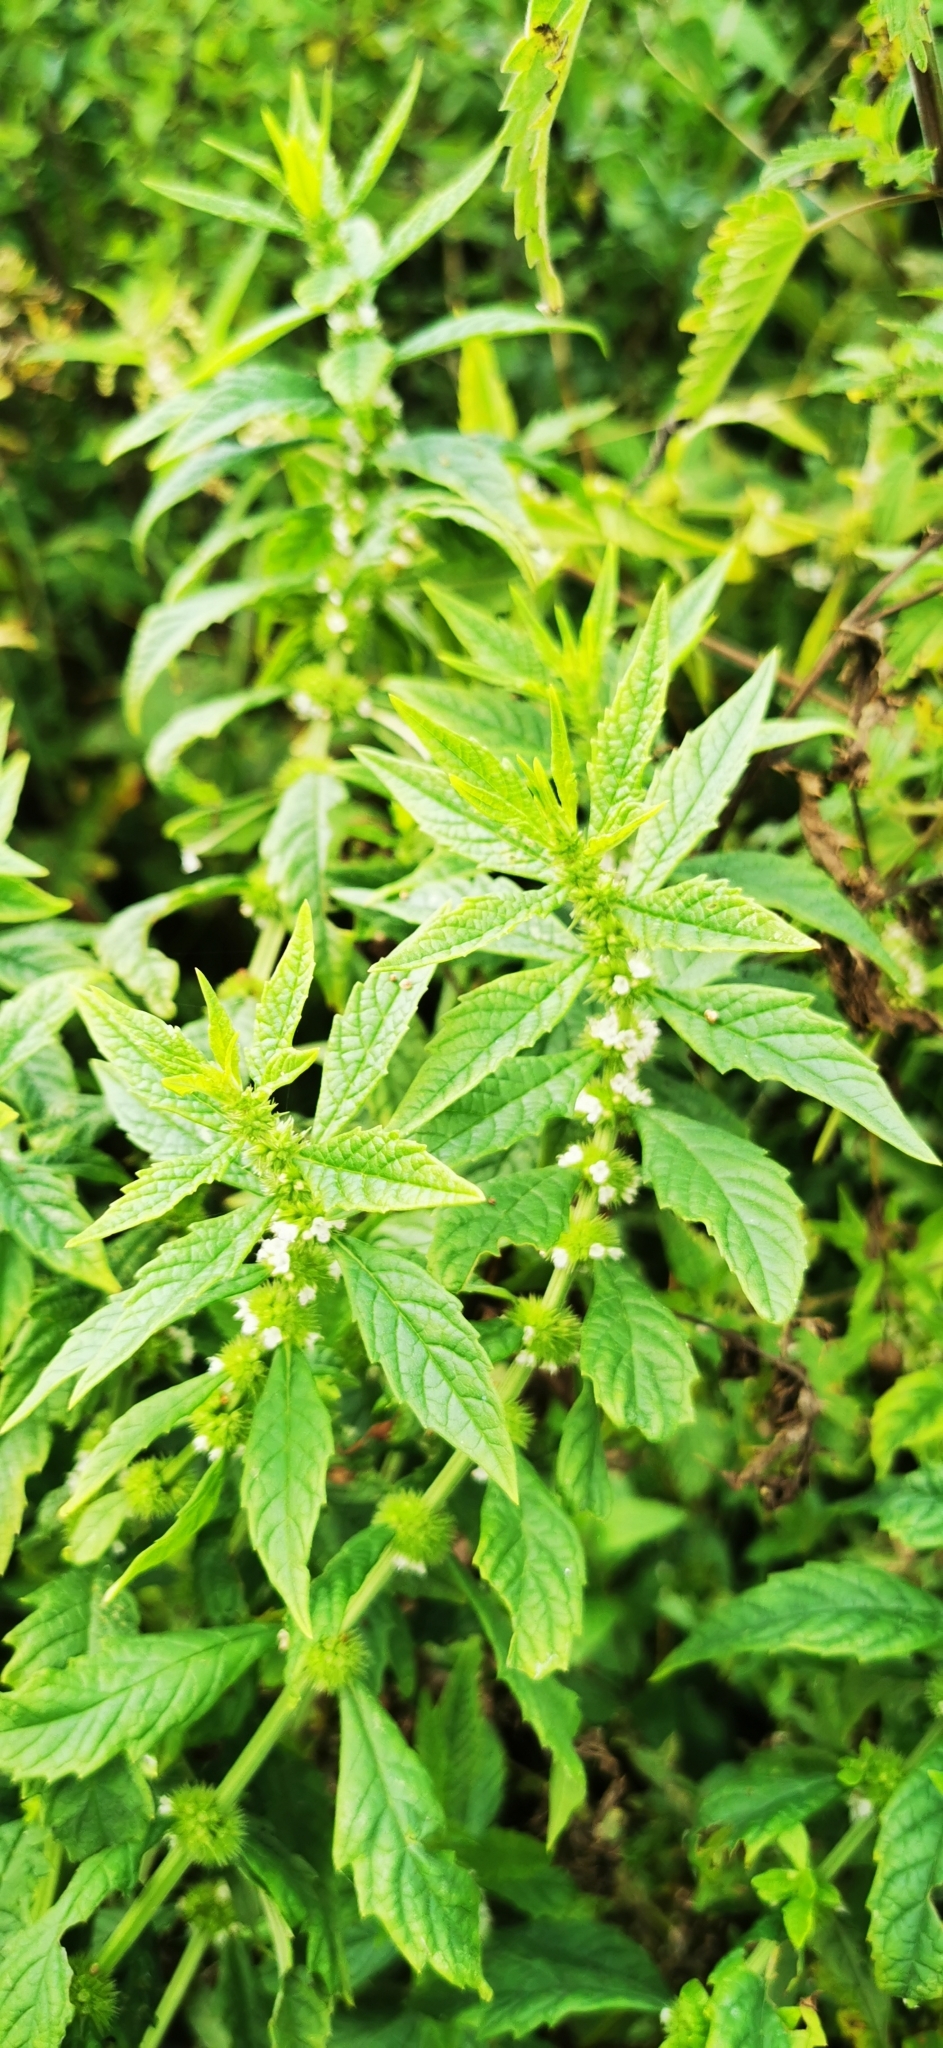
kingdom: Plantae
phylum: Tracheophyta
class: Magnoliopsida
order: Lamiales
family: Lamiaceae
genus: Lycopus
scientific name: Lycopus europaeus
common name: European bugleweed
